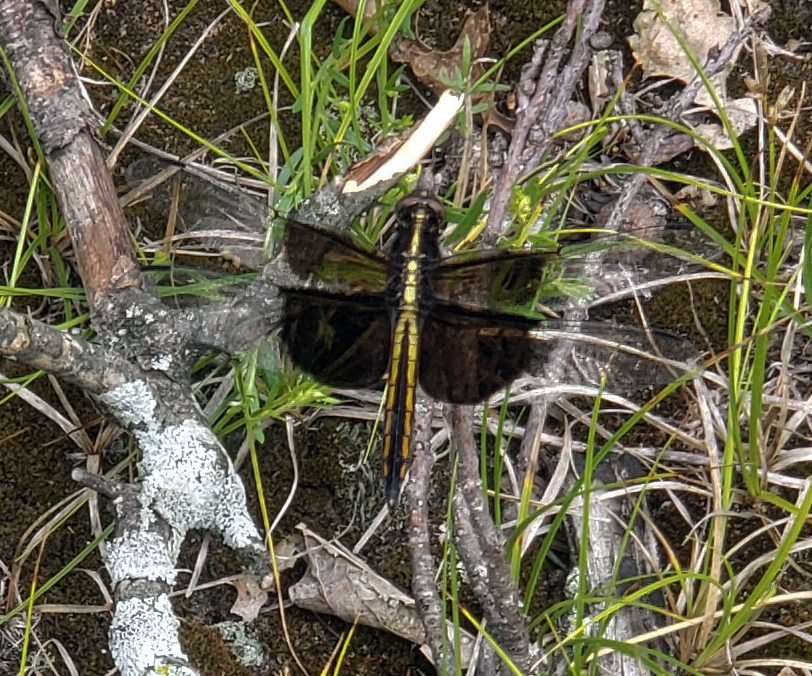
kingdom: Animalia
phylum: Arthropoda
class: Insecta
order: Odonata
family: Libellulidae
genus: Libellula
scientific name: Libellula luctuosa
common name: Widow skimmer
